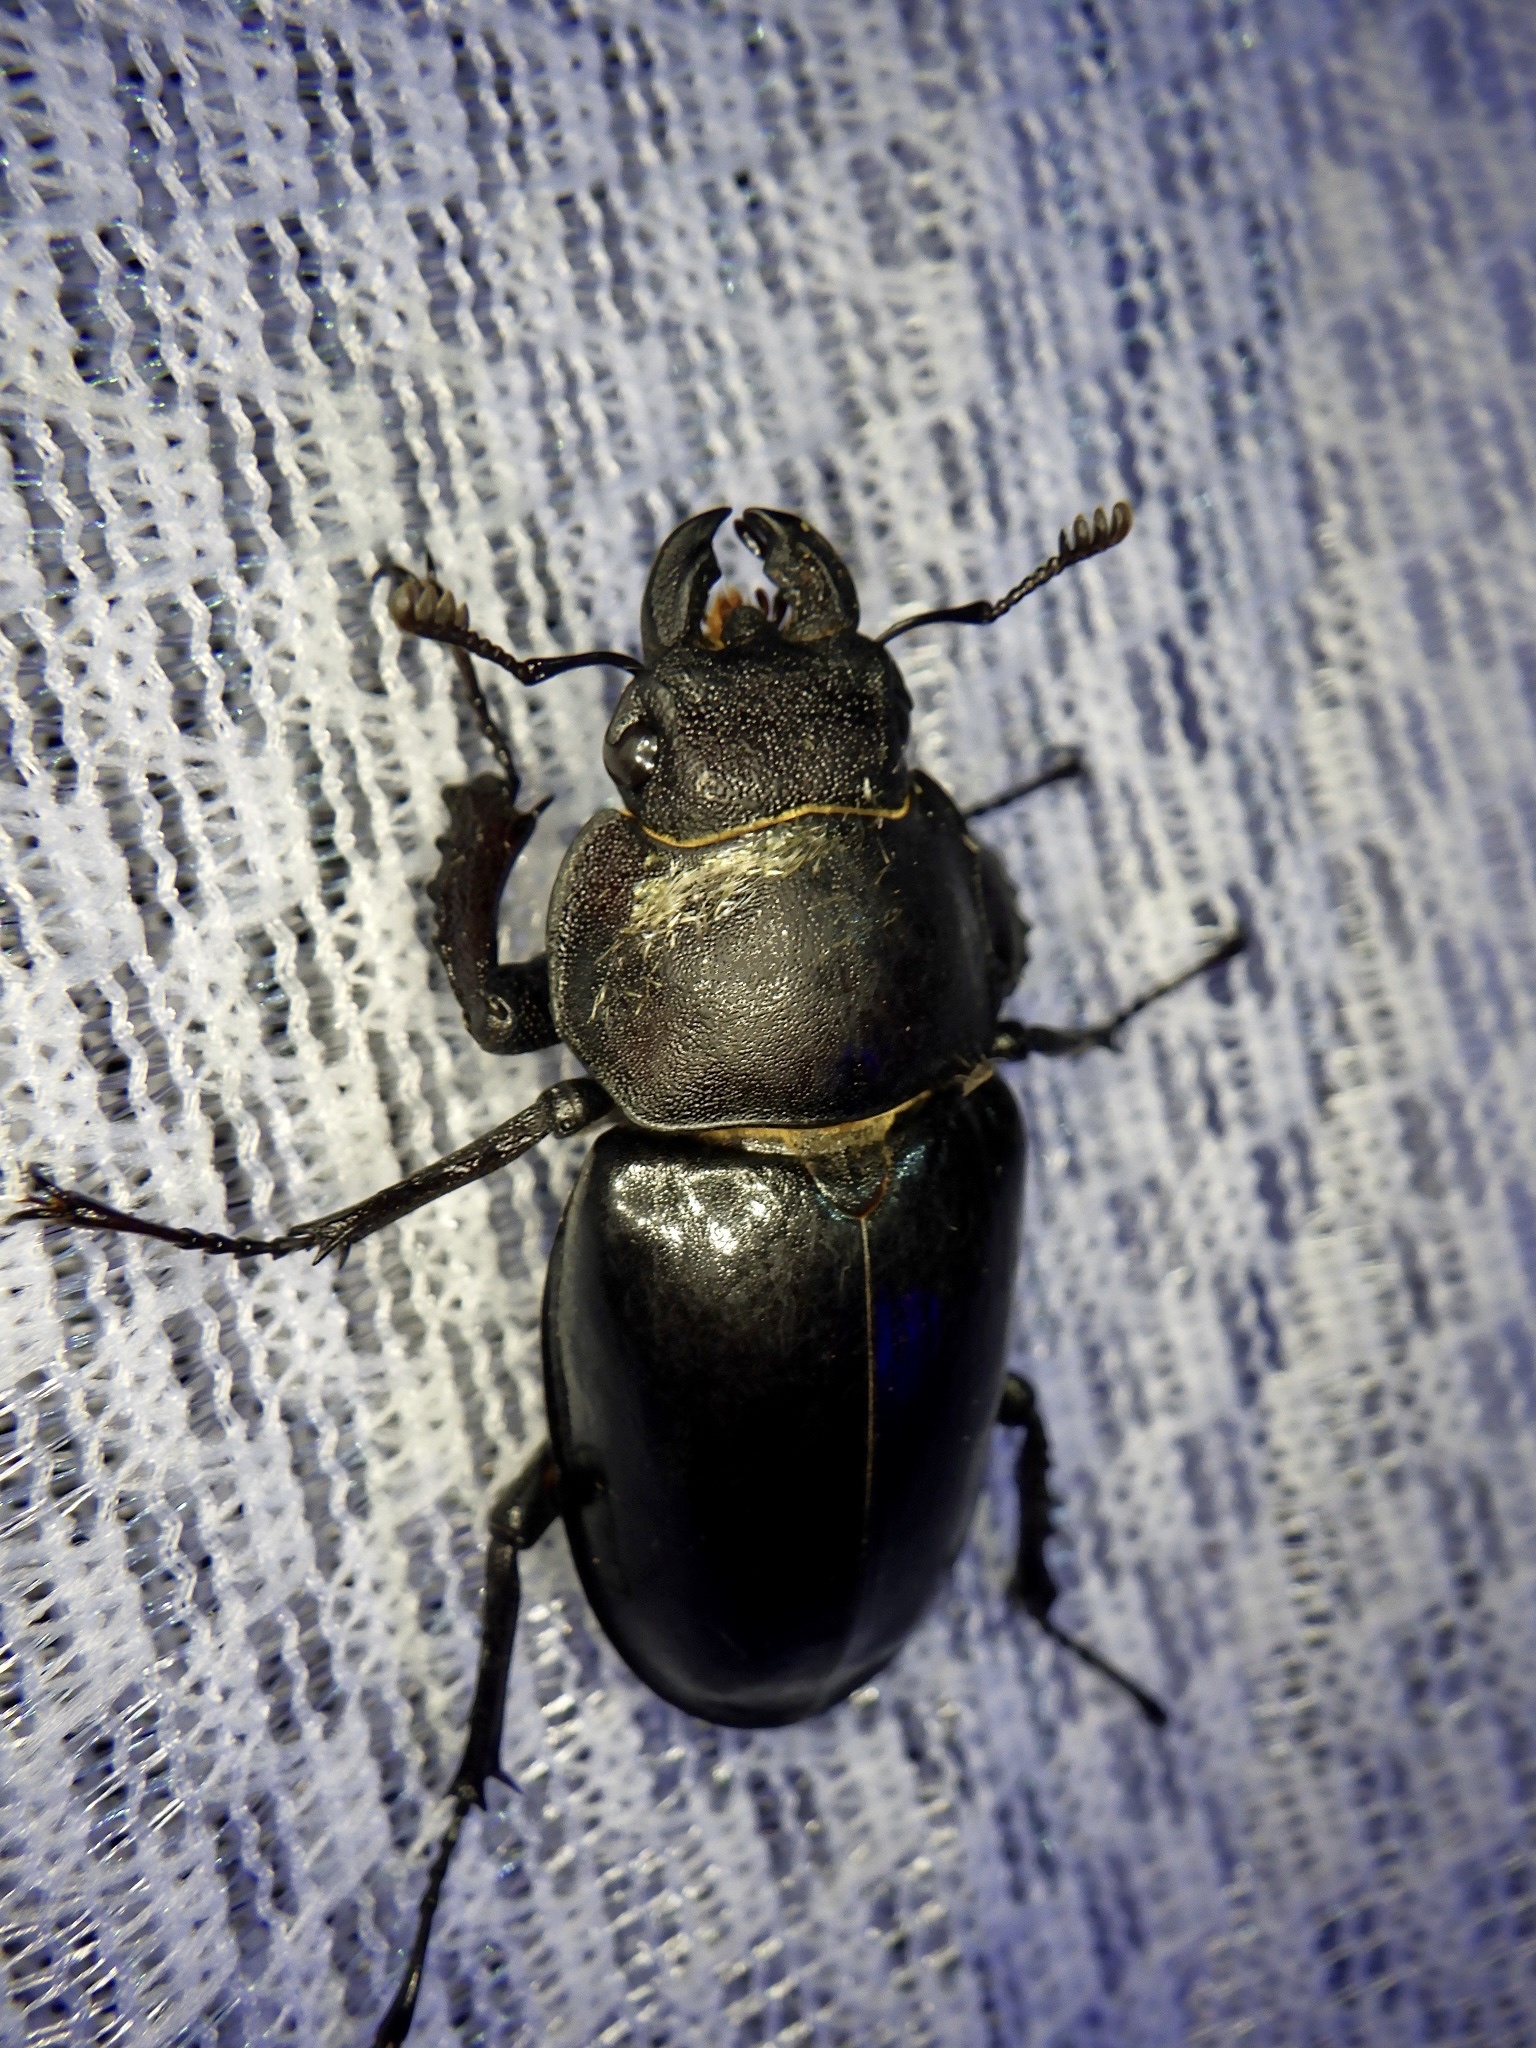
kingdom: Animalia
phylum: Arthropoda
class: Insecta
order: Coleoptera
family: Lucanidae
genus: Lucanus
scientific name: Lucanus maculifemoratus
